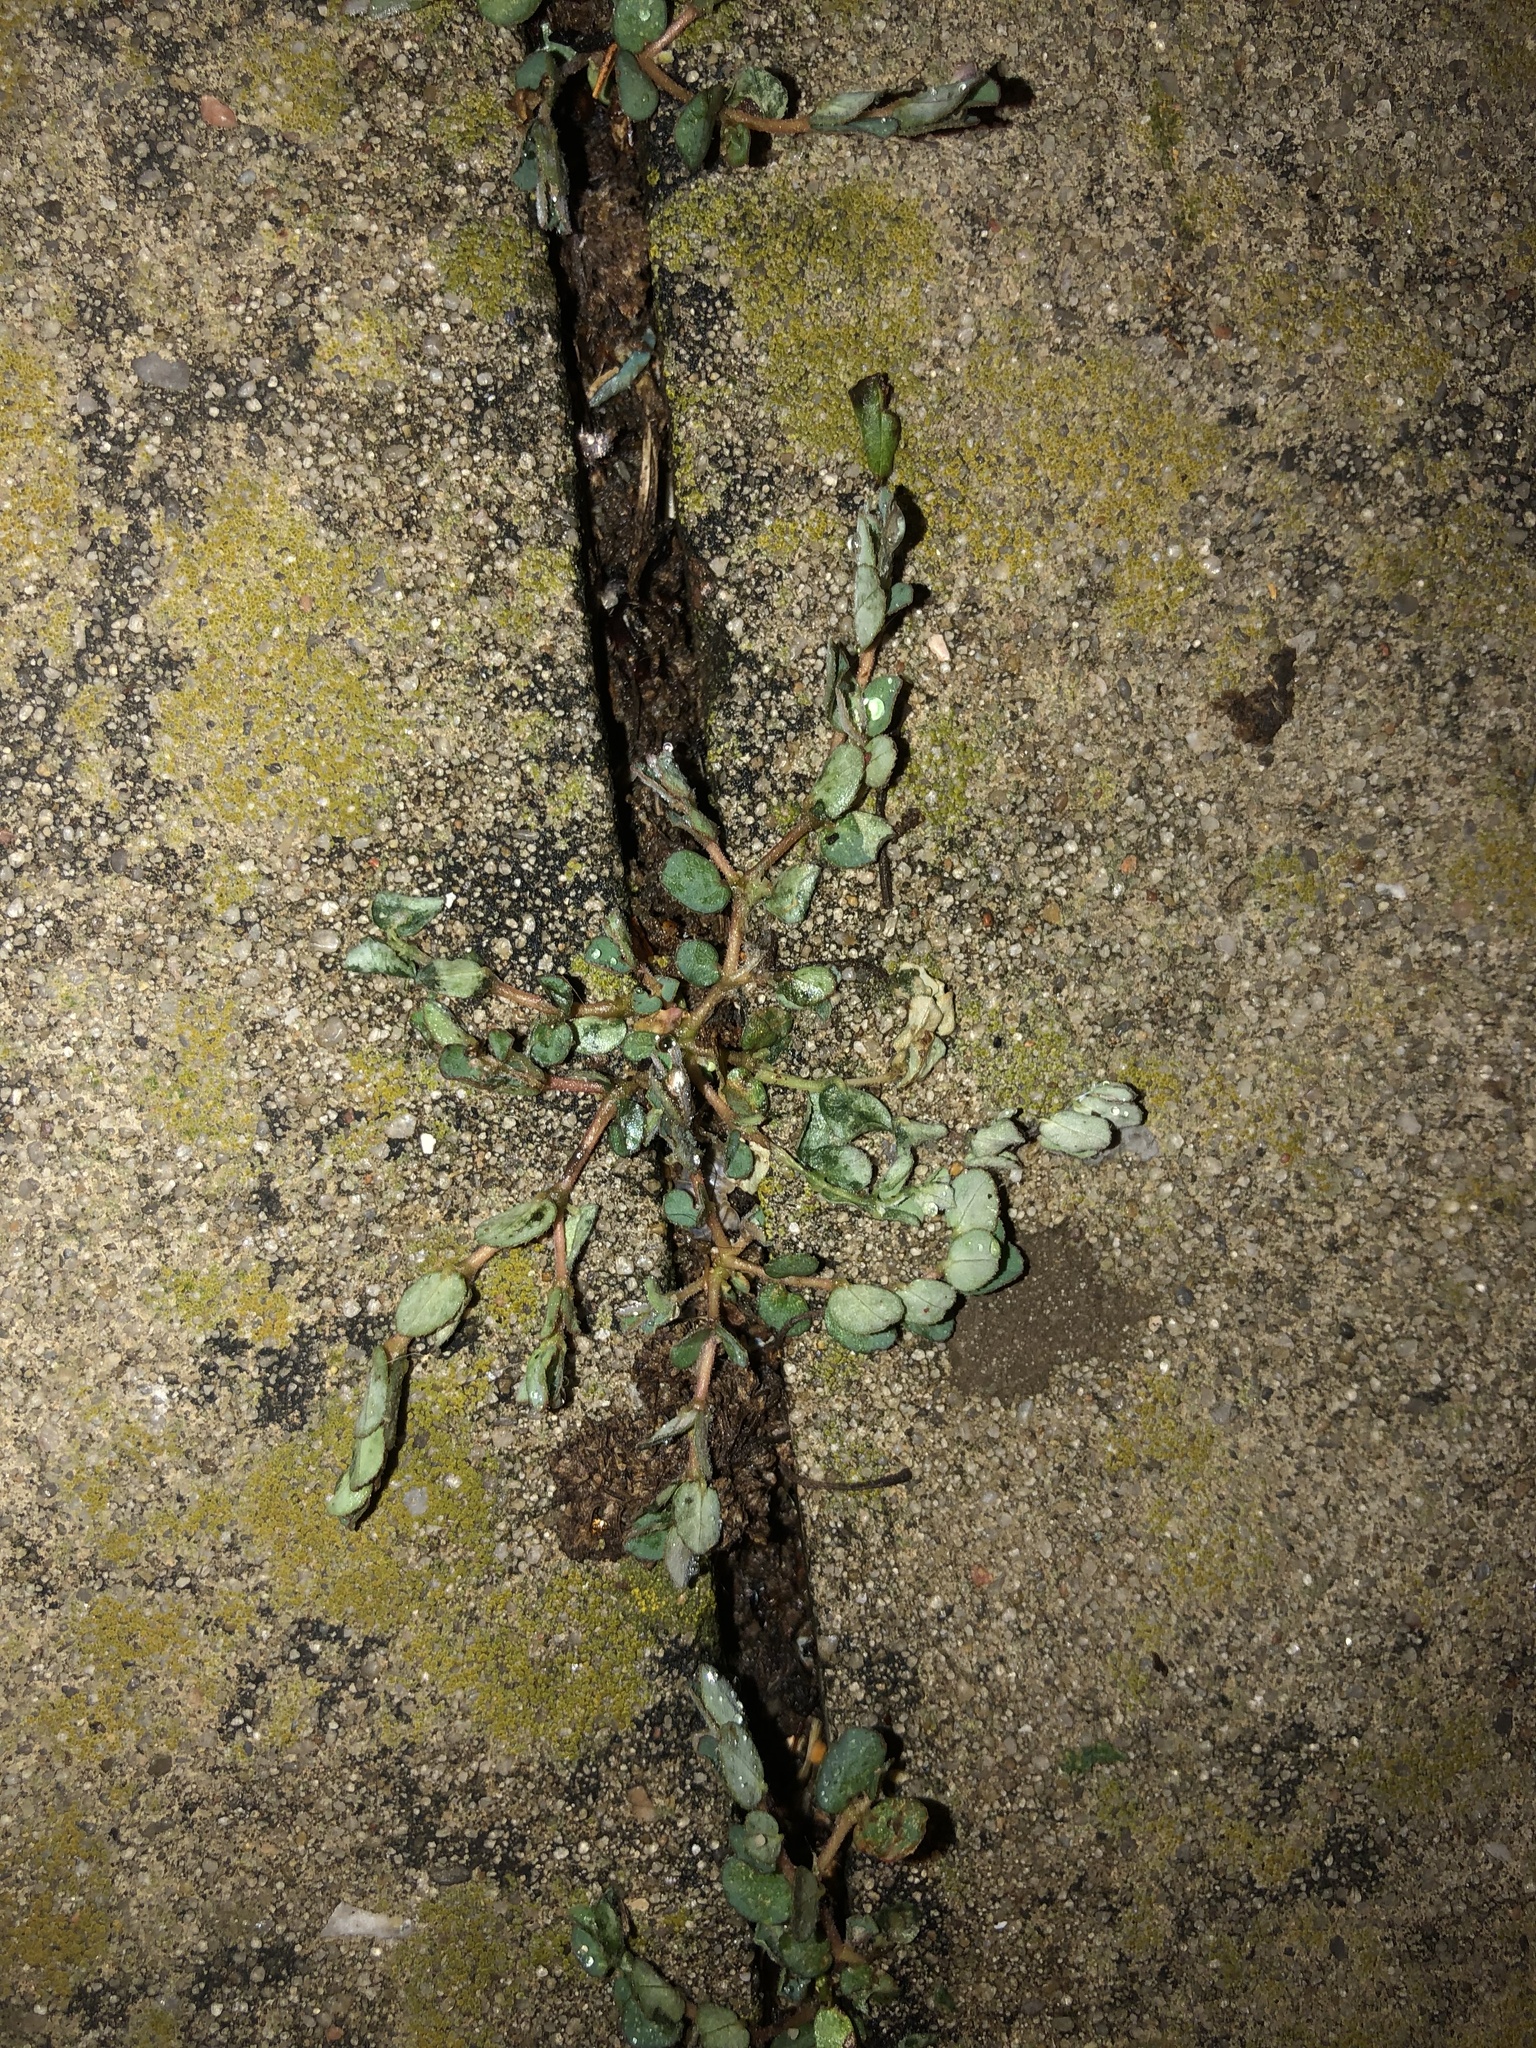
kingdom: Plantae
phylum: Tracheophyta
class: Magnoliopsida
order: Malpighiales
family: Euphorbiaceae
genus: Euphorbia
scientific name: Euphorbia prostrata
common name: Prostrate sandmat
